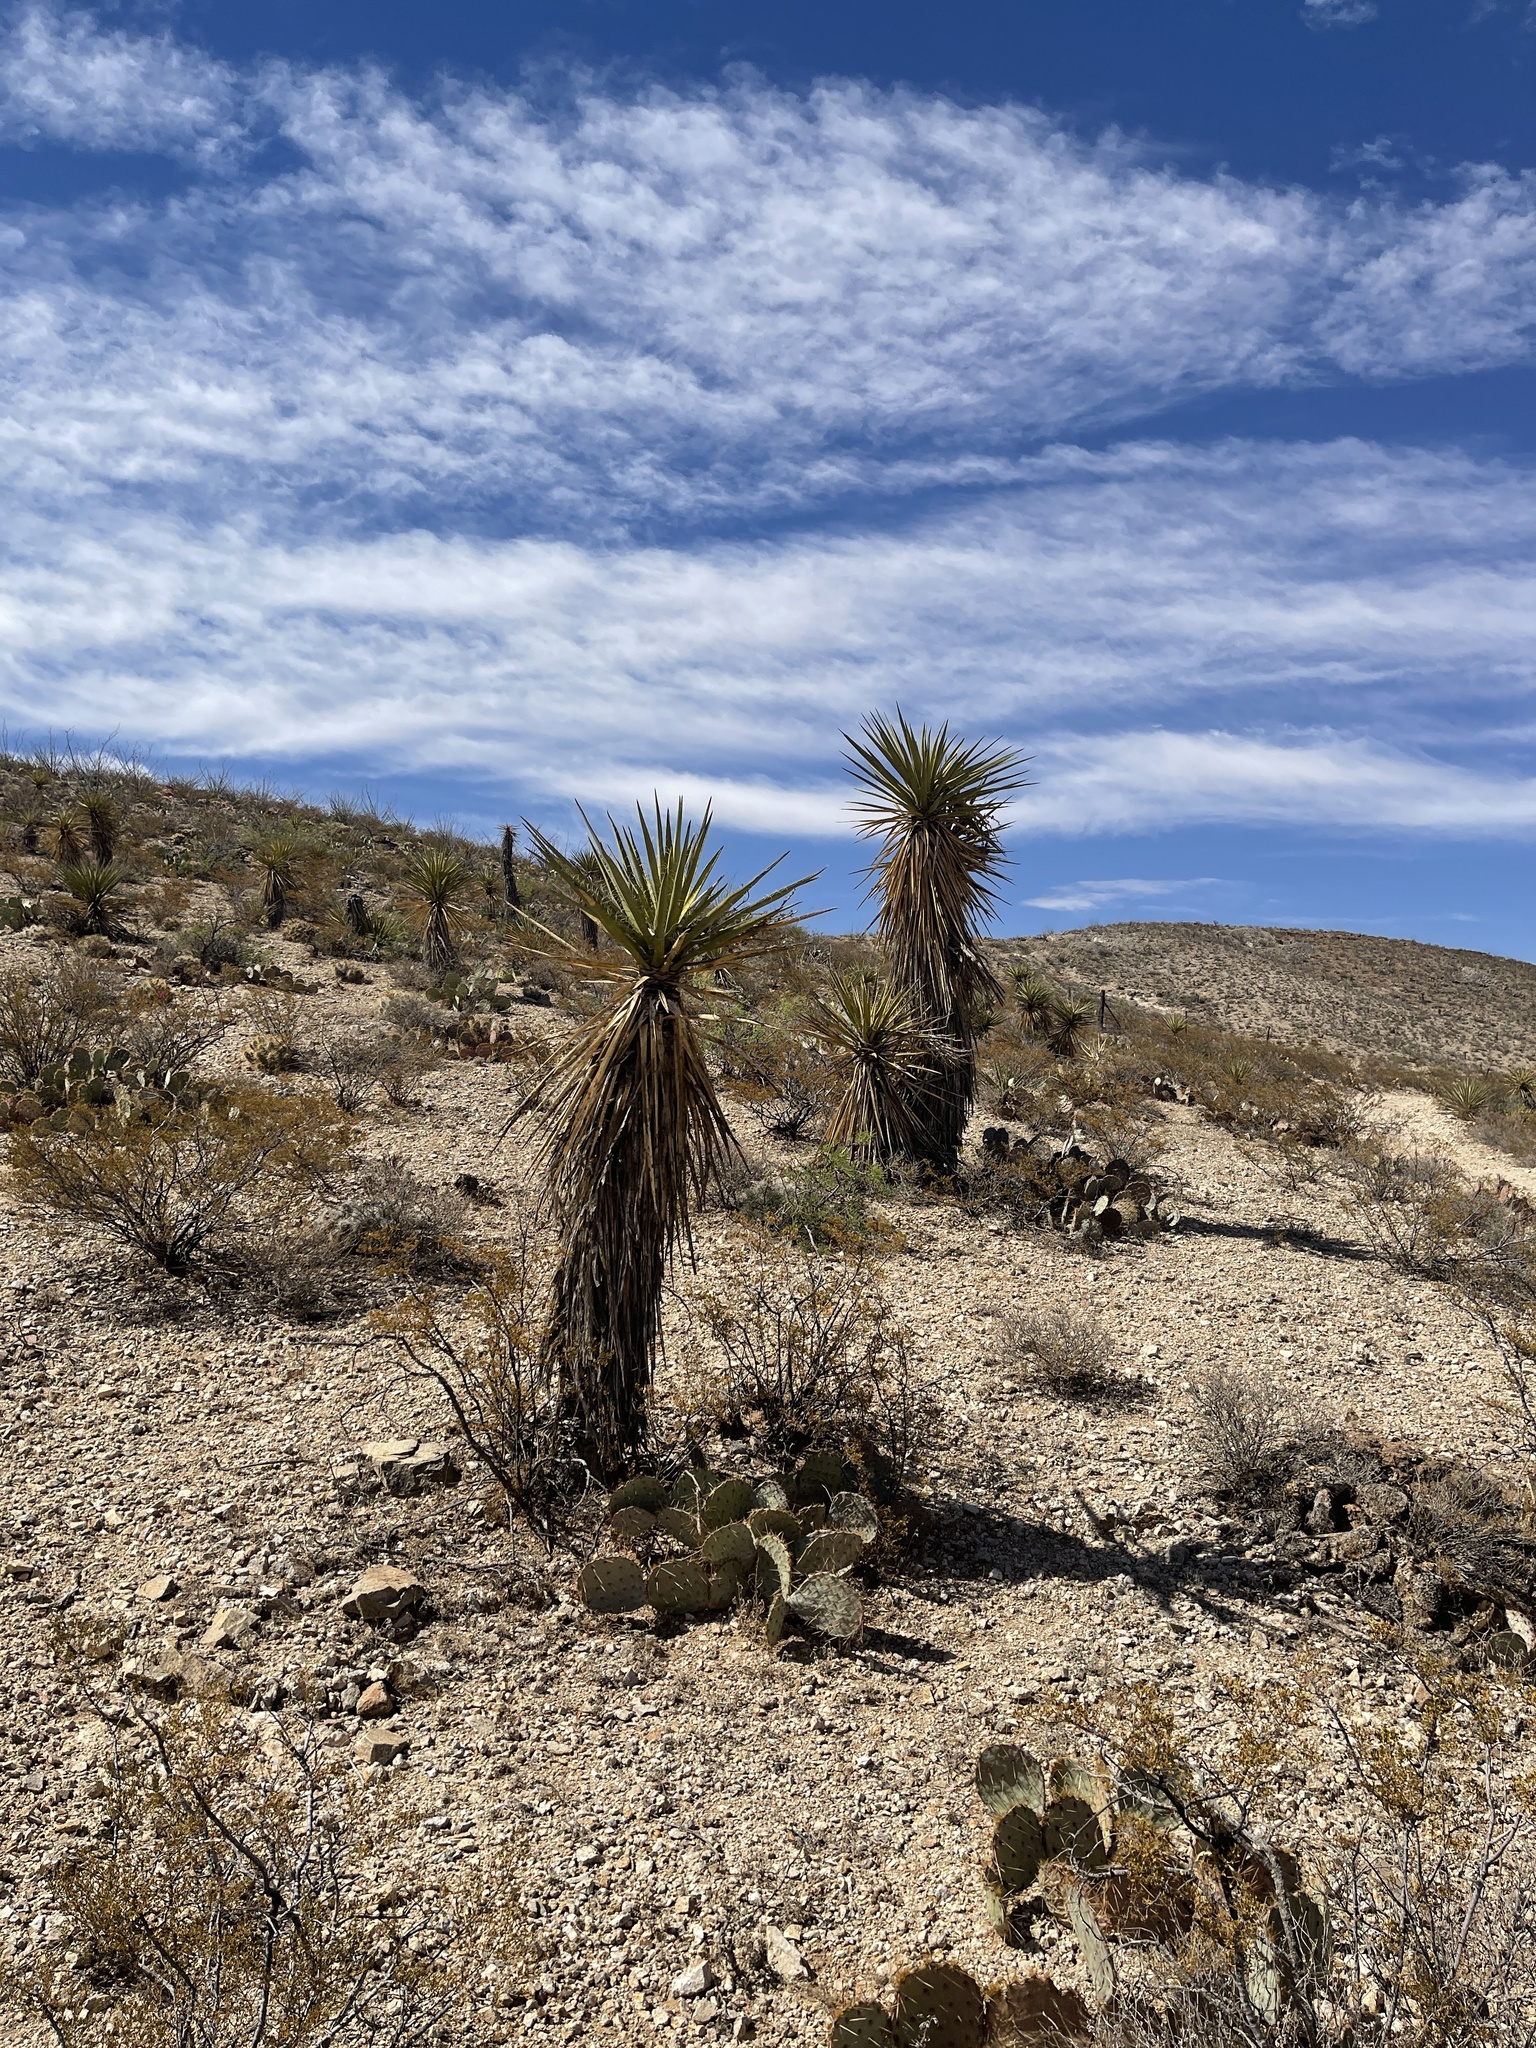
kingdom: Plantae
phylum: Tracheophyta
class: Liliopsida
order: Asparagales
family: Asparagaceae
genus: Yucca
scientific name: Yucca treculiana
